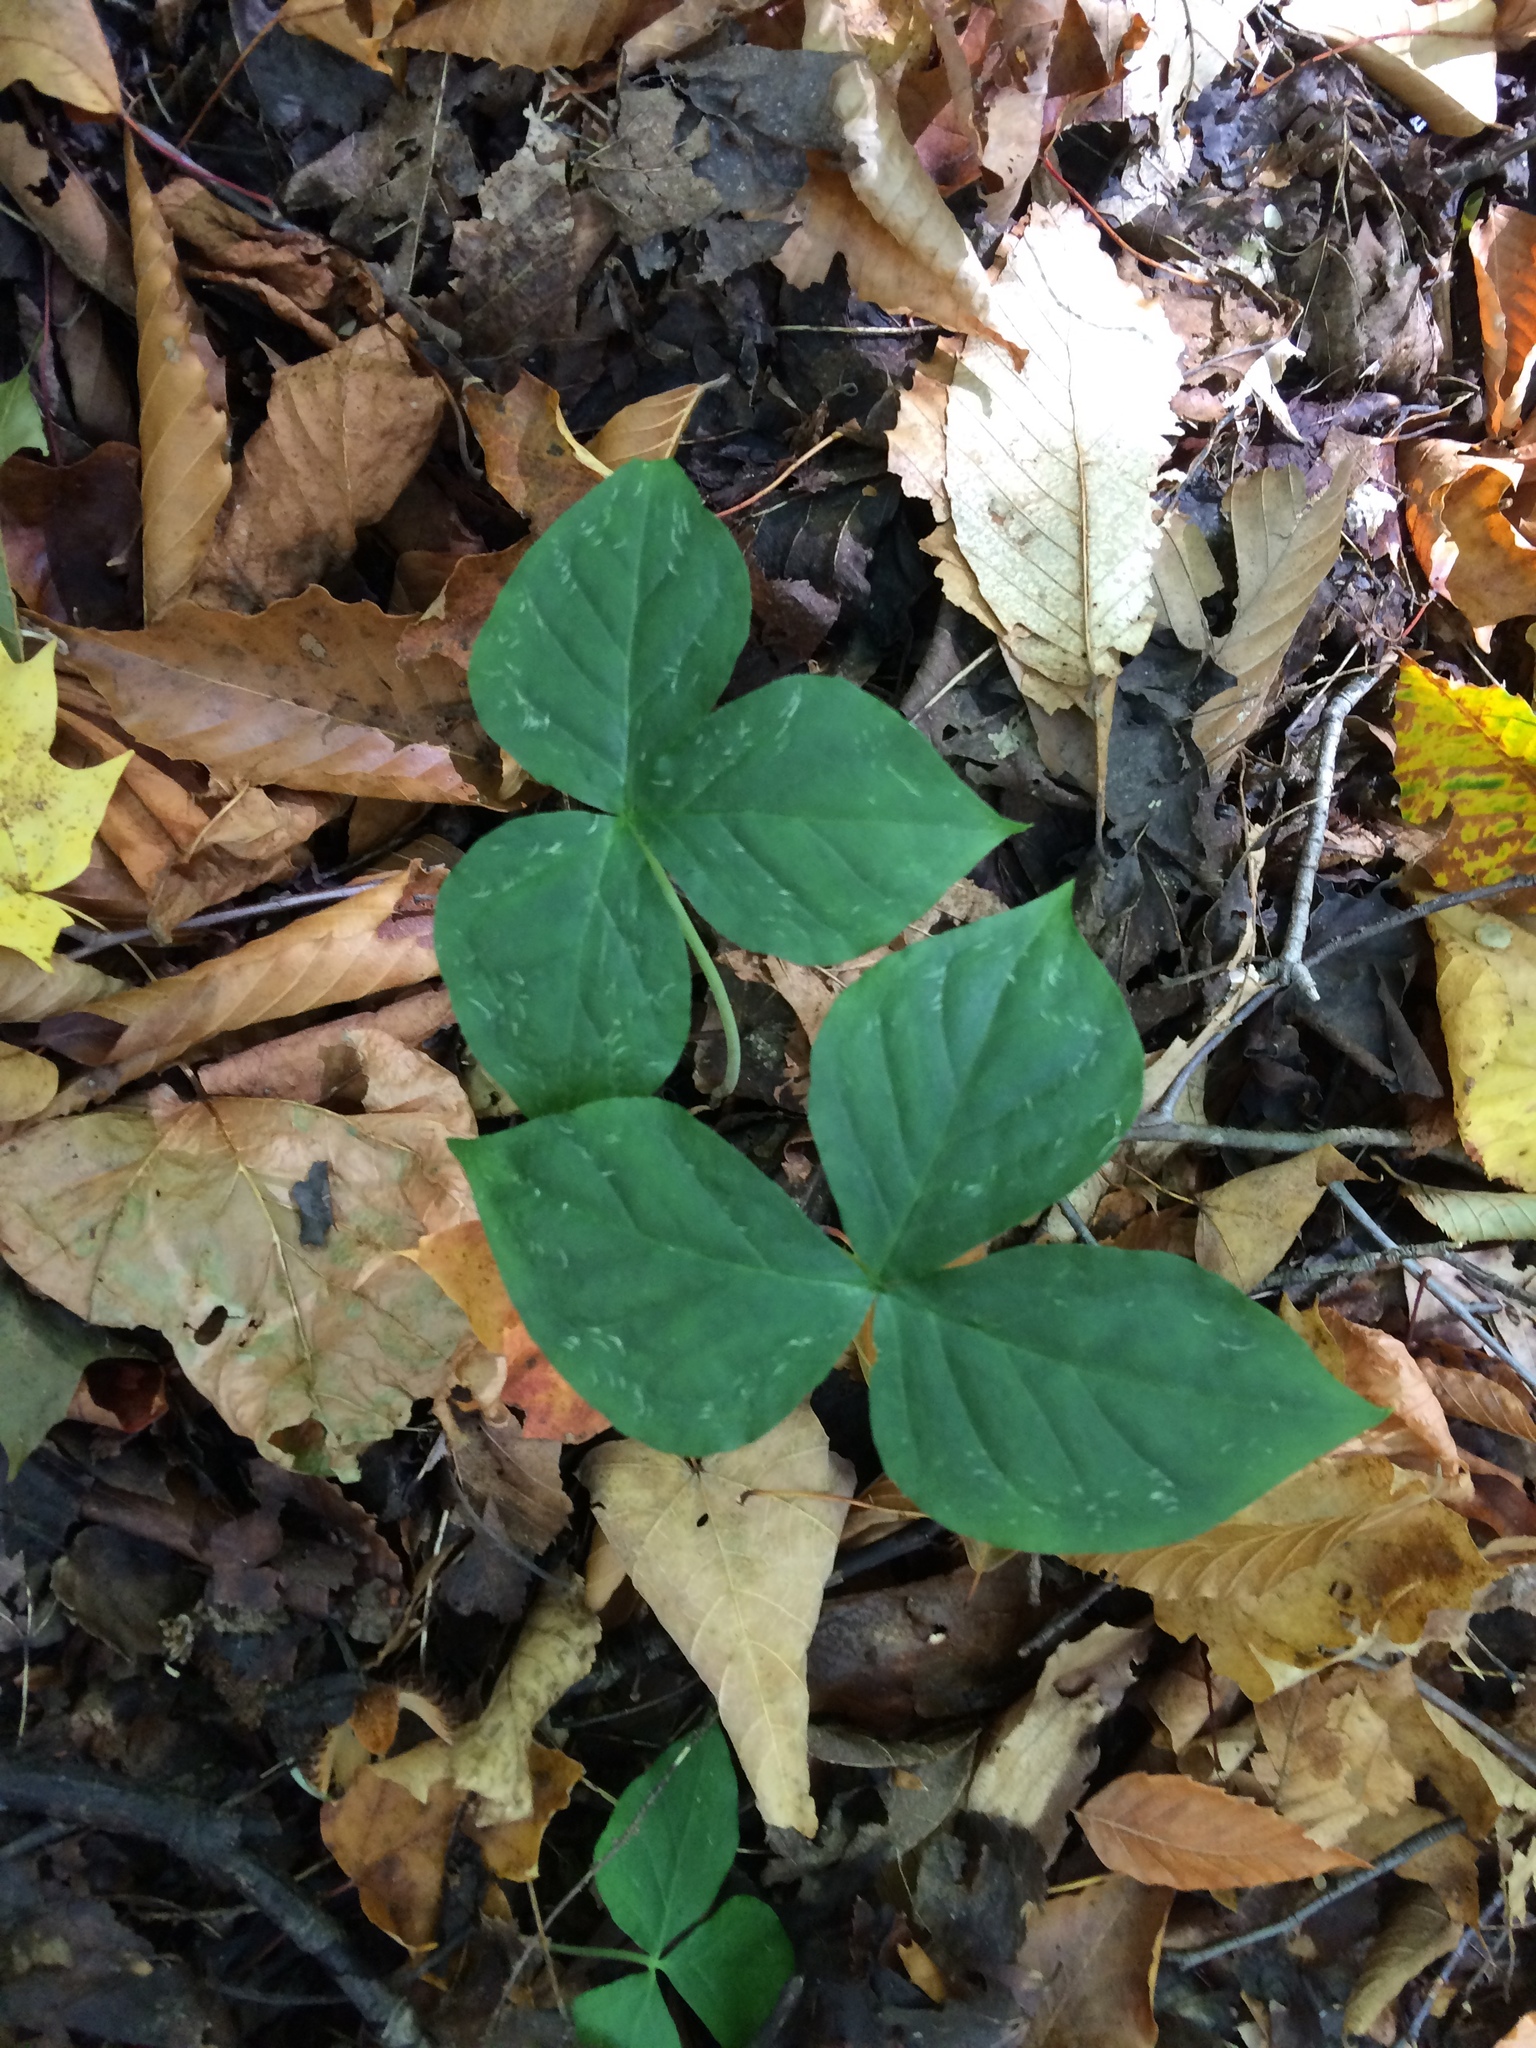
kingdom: Plantae
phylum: Tracheophyta
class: Liliopsida
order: Alismatales
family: Araceae
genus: Arisaema
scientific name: Arisaema triphyllum
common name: Jack-in-the-pulpit
